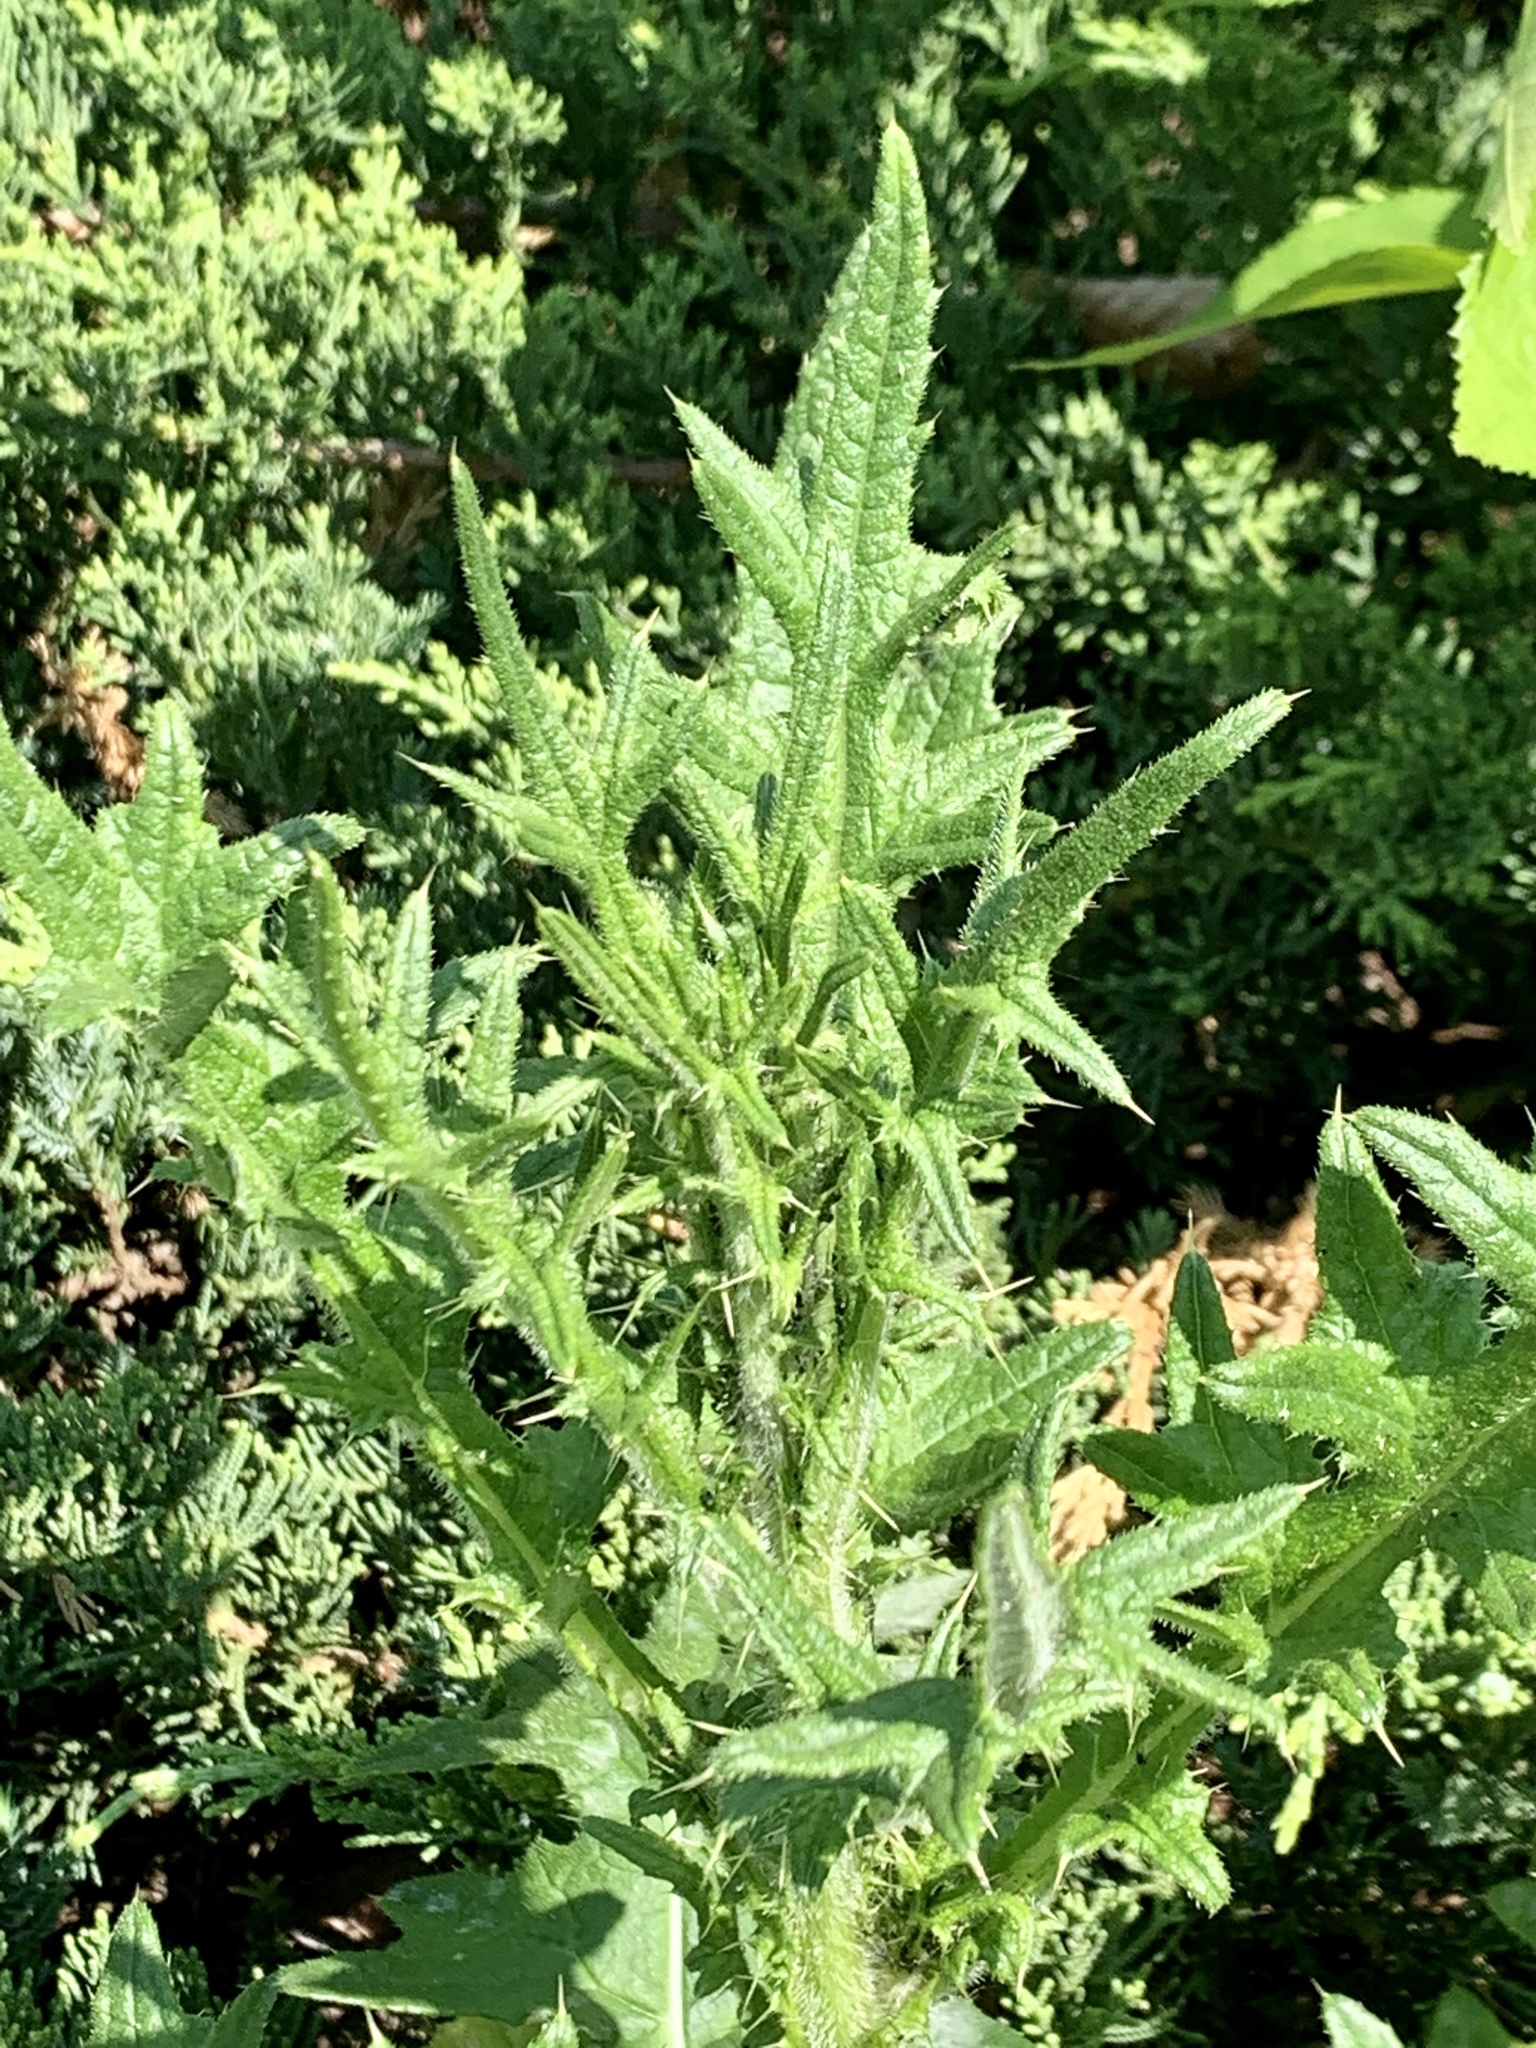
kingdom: Plantae
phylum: Tracheophyta
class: Magnoliopsida
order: Asterales
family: Asteraceae
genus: Cirsium
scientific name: Cirsium vulgare
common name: Bull thistle
